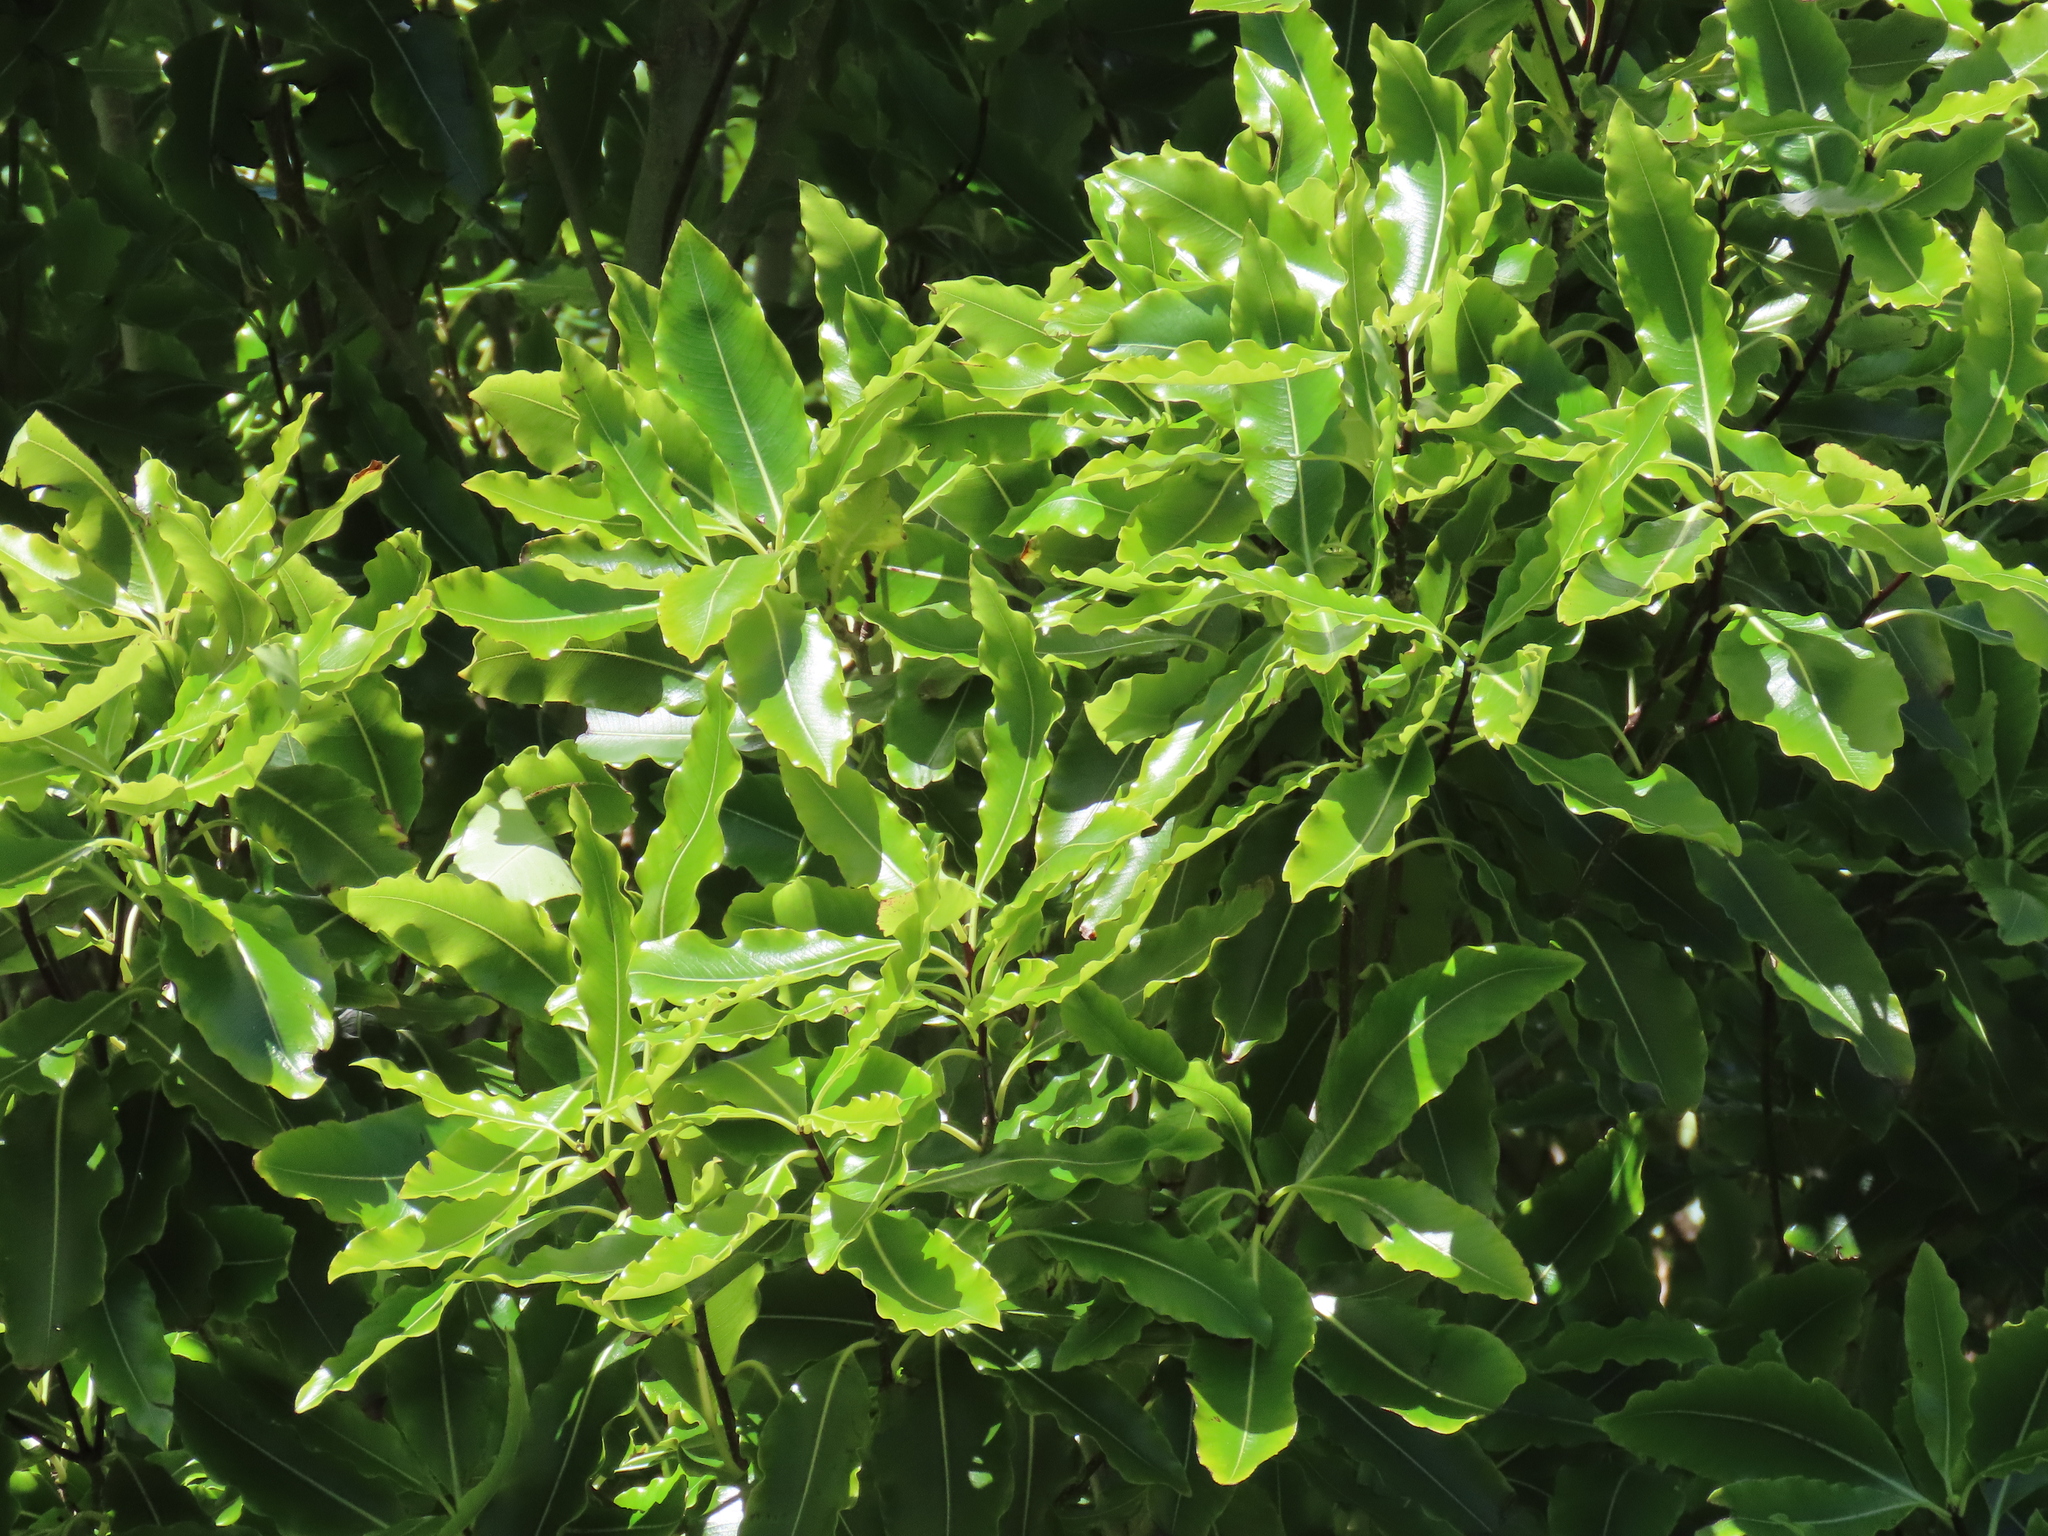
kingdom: Plantae
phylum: Tracheophyta
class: Magnoliopsida
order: Apiales
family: Pittosporaceae
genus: Pittosporum
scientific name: Pittosporum eugenioides
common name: Lemonwood
